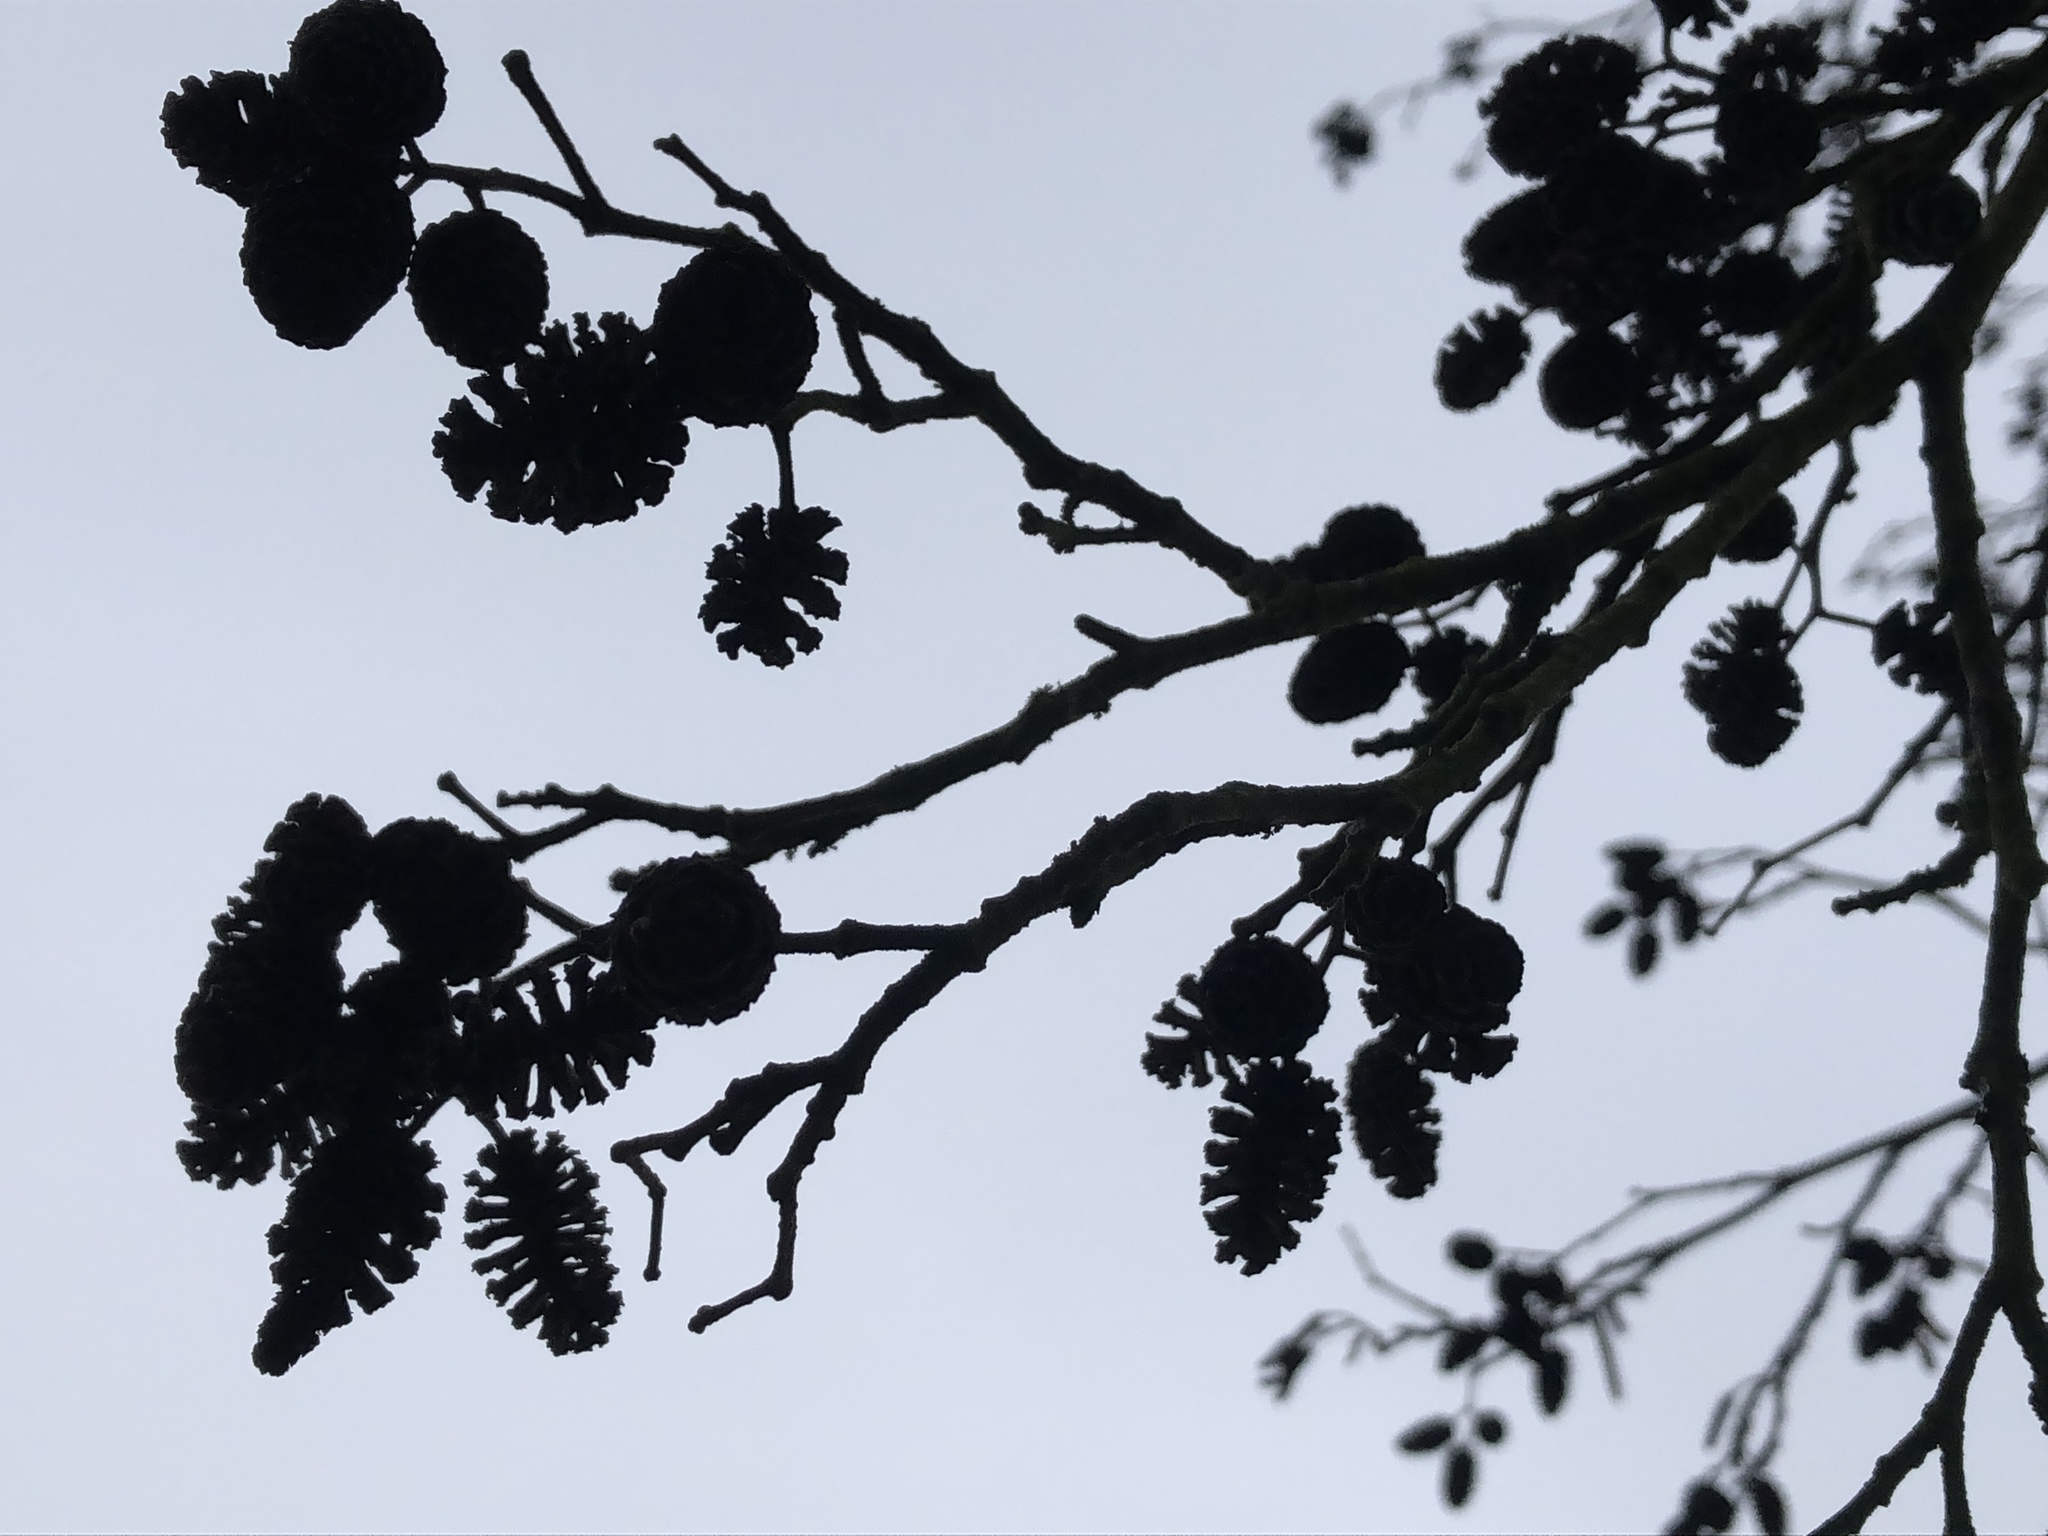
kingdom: Plantae
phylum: Tracheophyta
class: Magnoliopsida
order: Fagales
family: Betulaceae
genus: Alnus
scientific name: Alnus glutinosa
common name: Black alder
